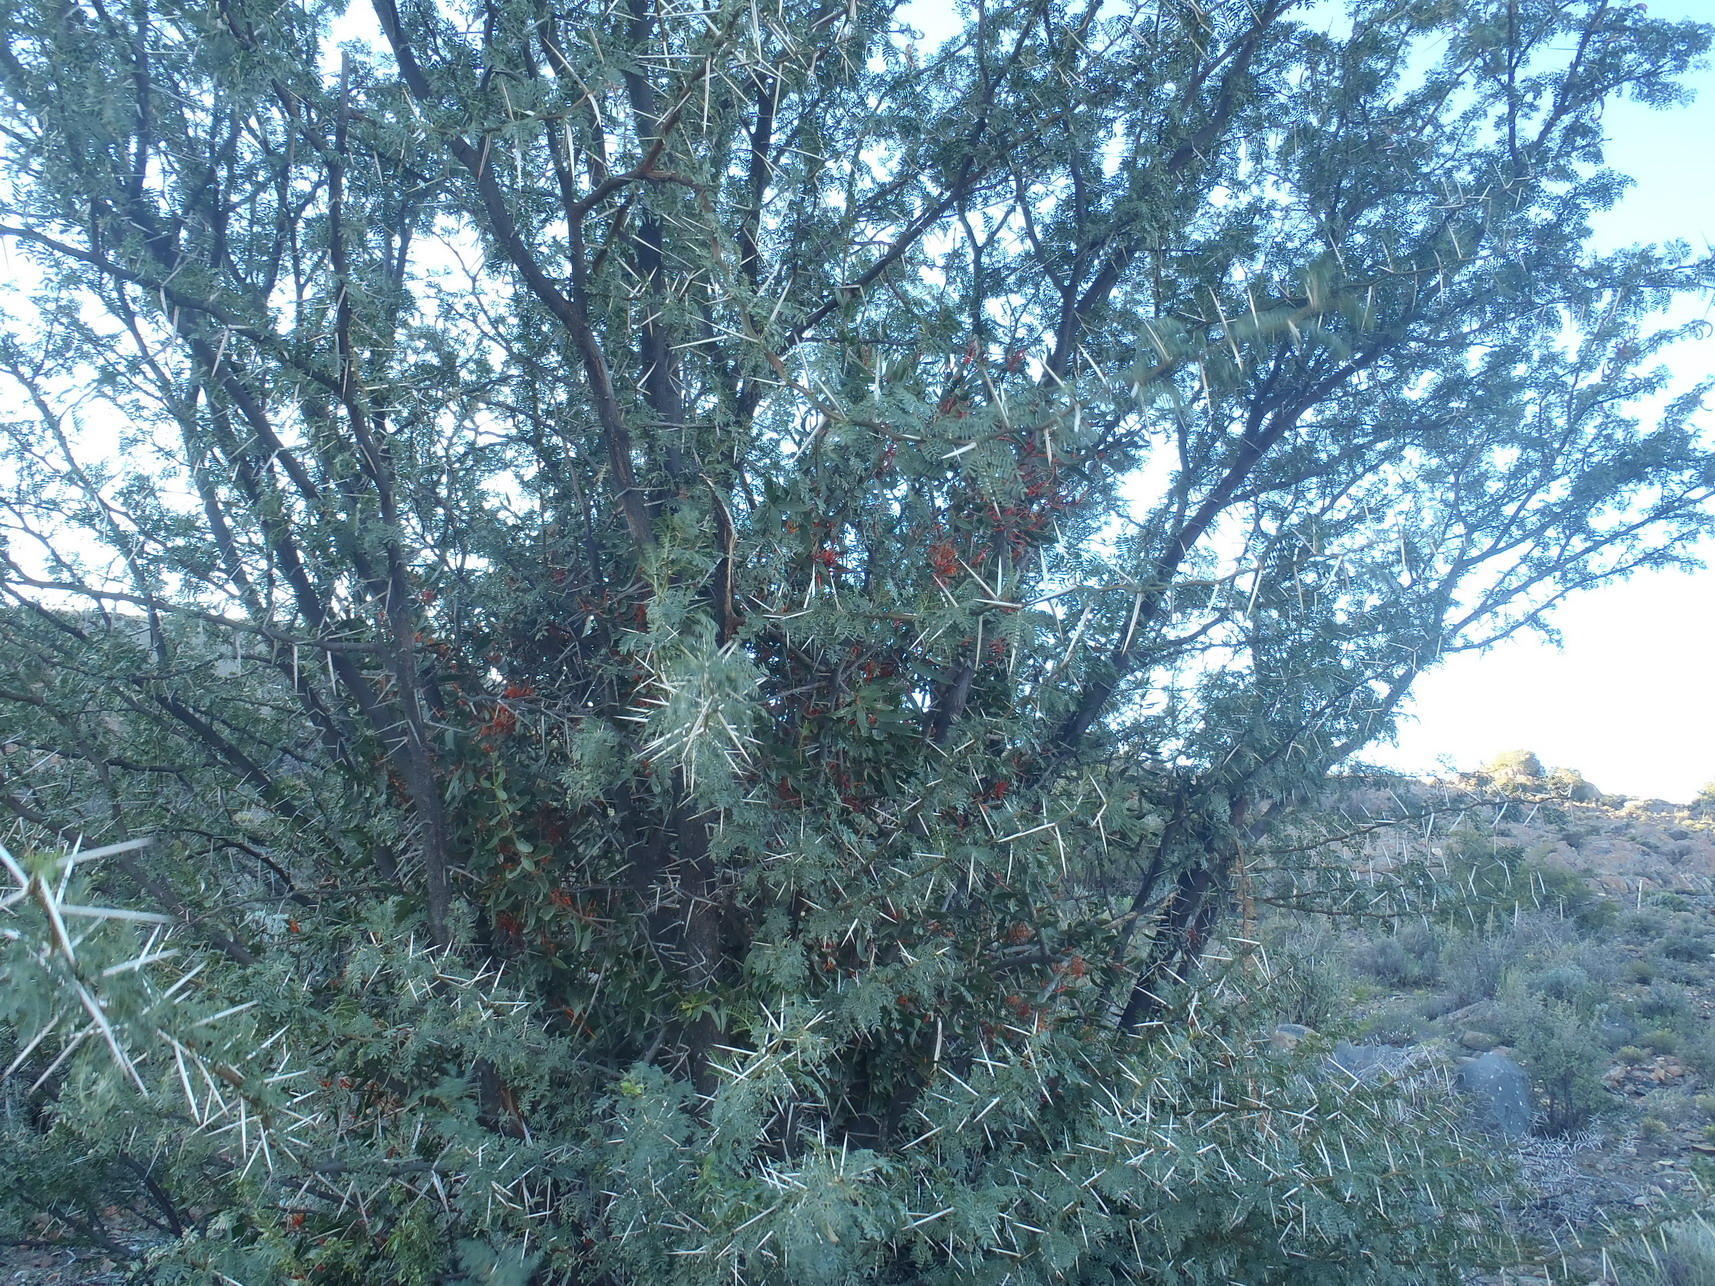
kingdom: Plantae
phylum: Tracheophyta
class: Magnoliopsida
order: Santalales
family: Loranthaceae
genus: Moquiniella
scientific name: Moquiniella rubra
